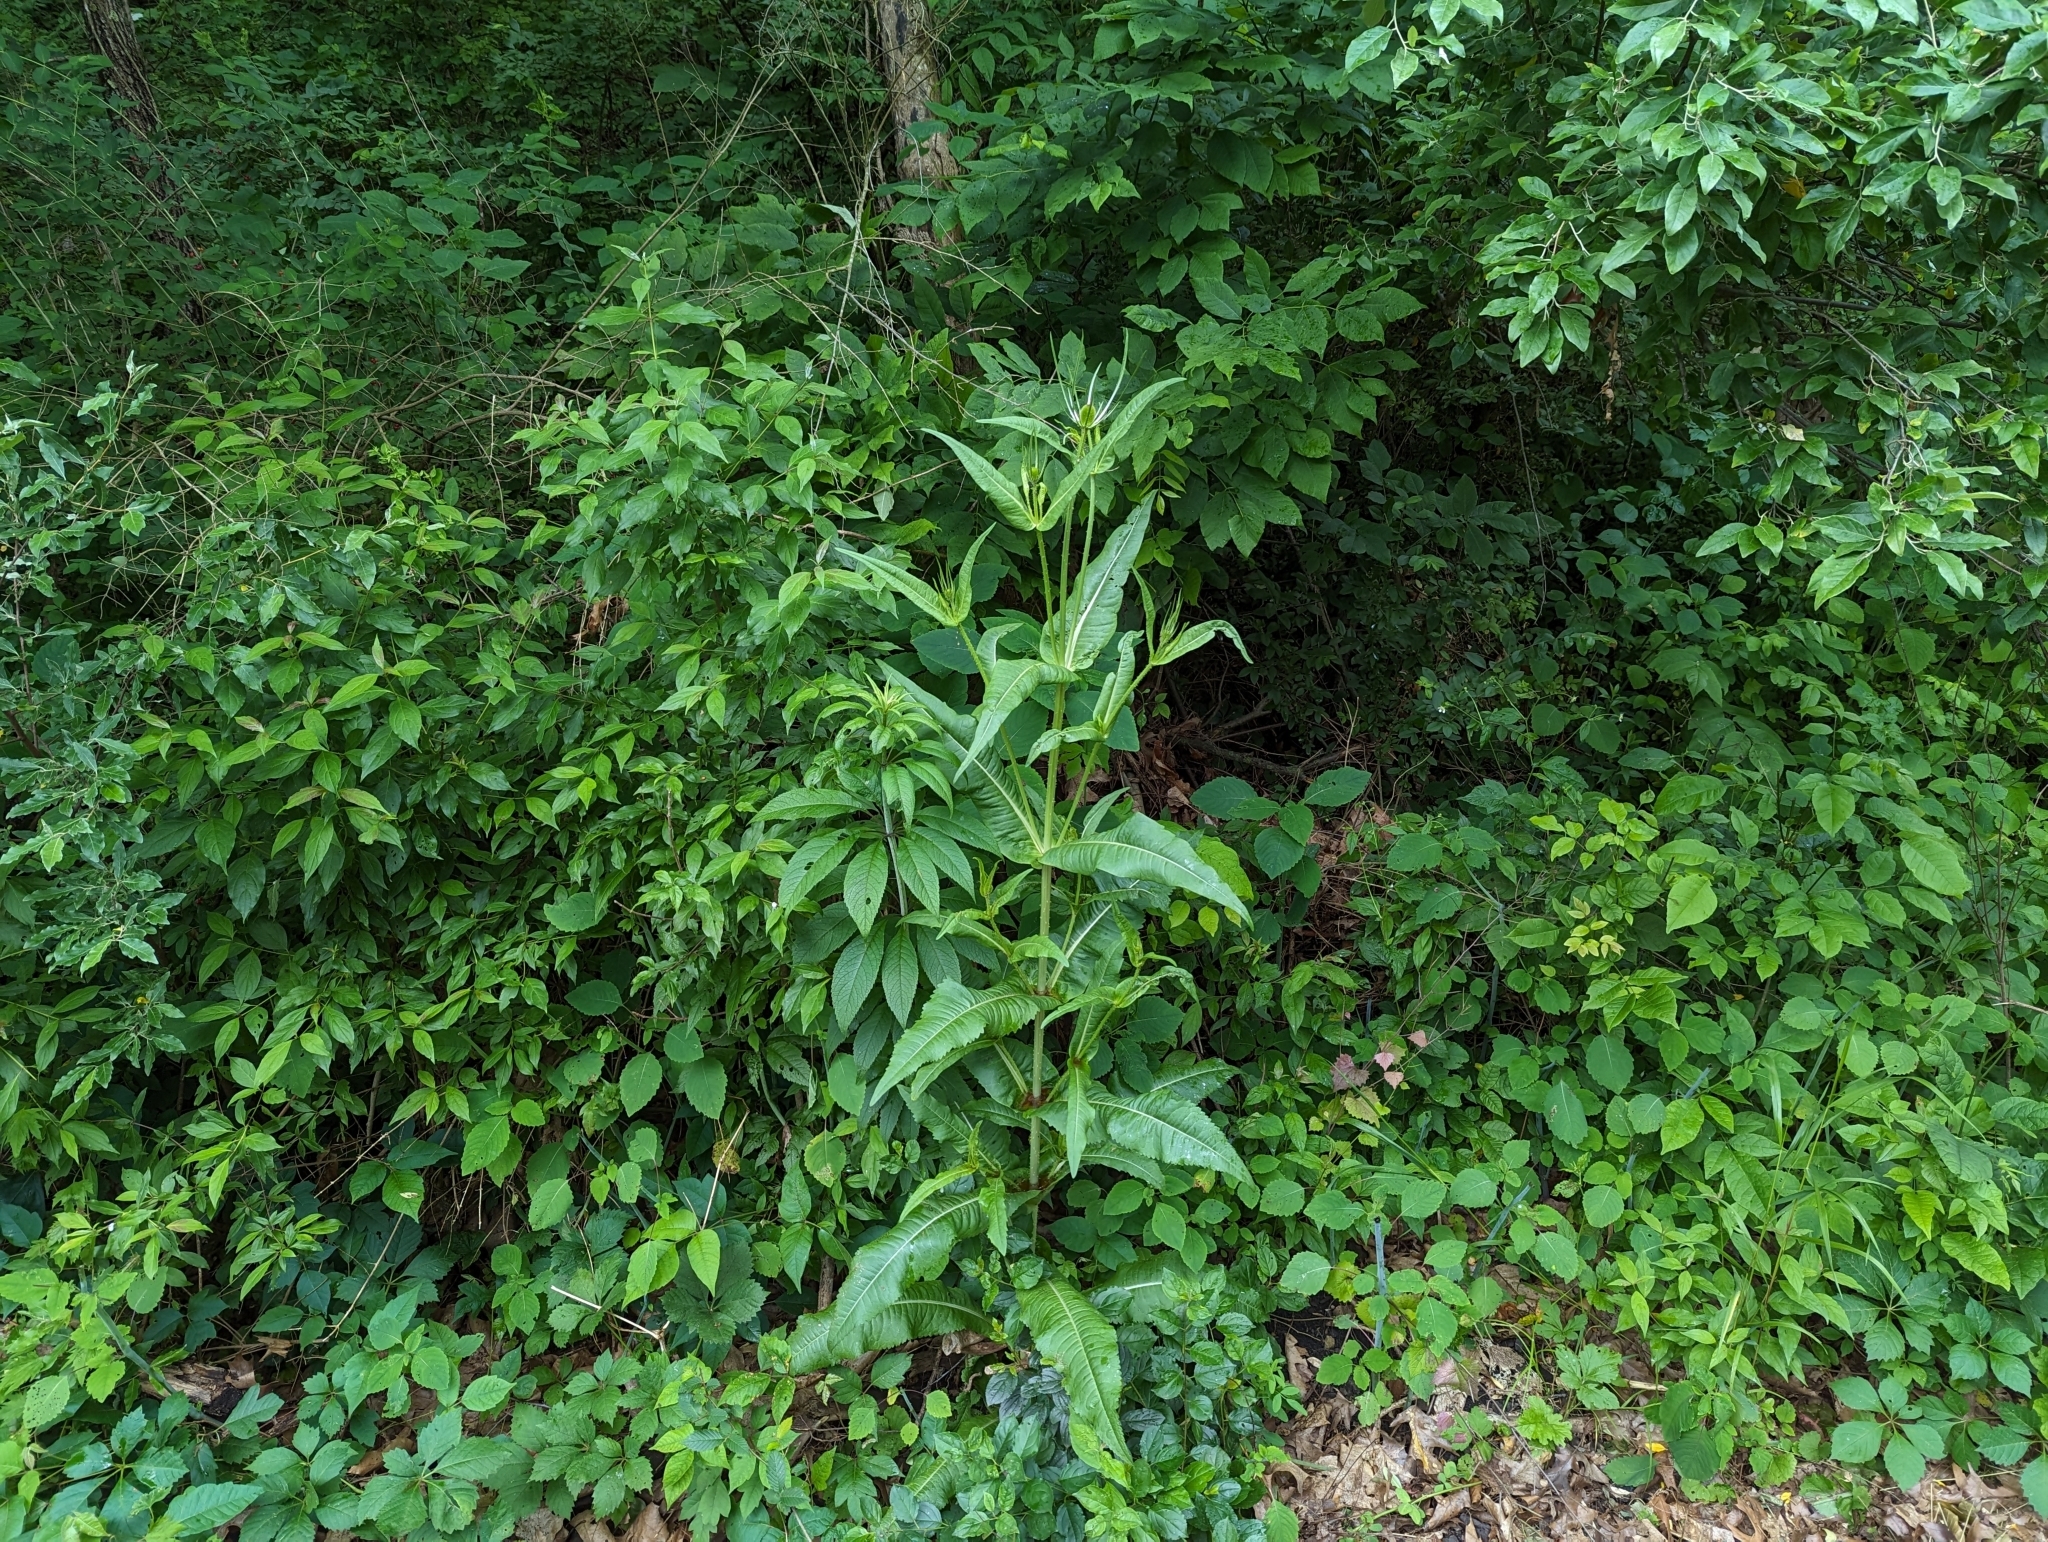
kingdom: Plantae
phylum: Tracheophyta
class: Magnoliopsida
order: Dipsacales
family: Caprifoliaceae
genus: Dipsacus
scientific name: Dipsacus fullonum
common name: Teasel
